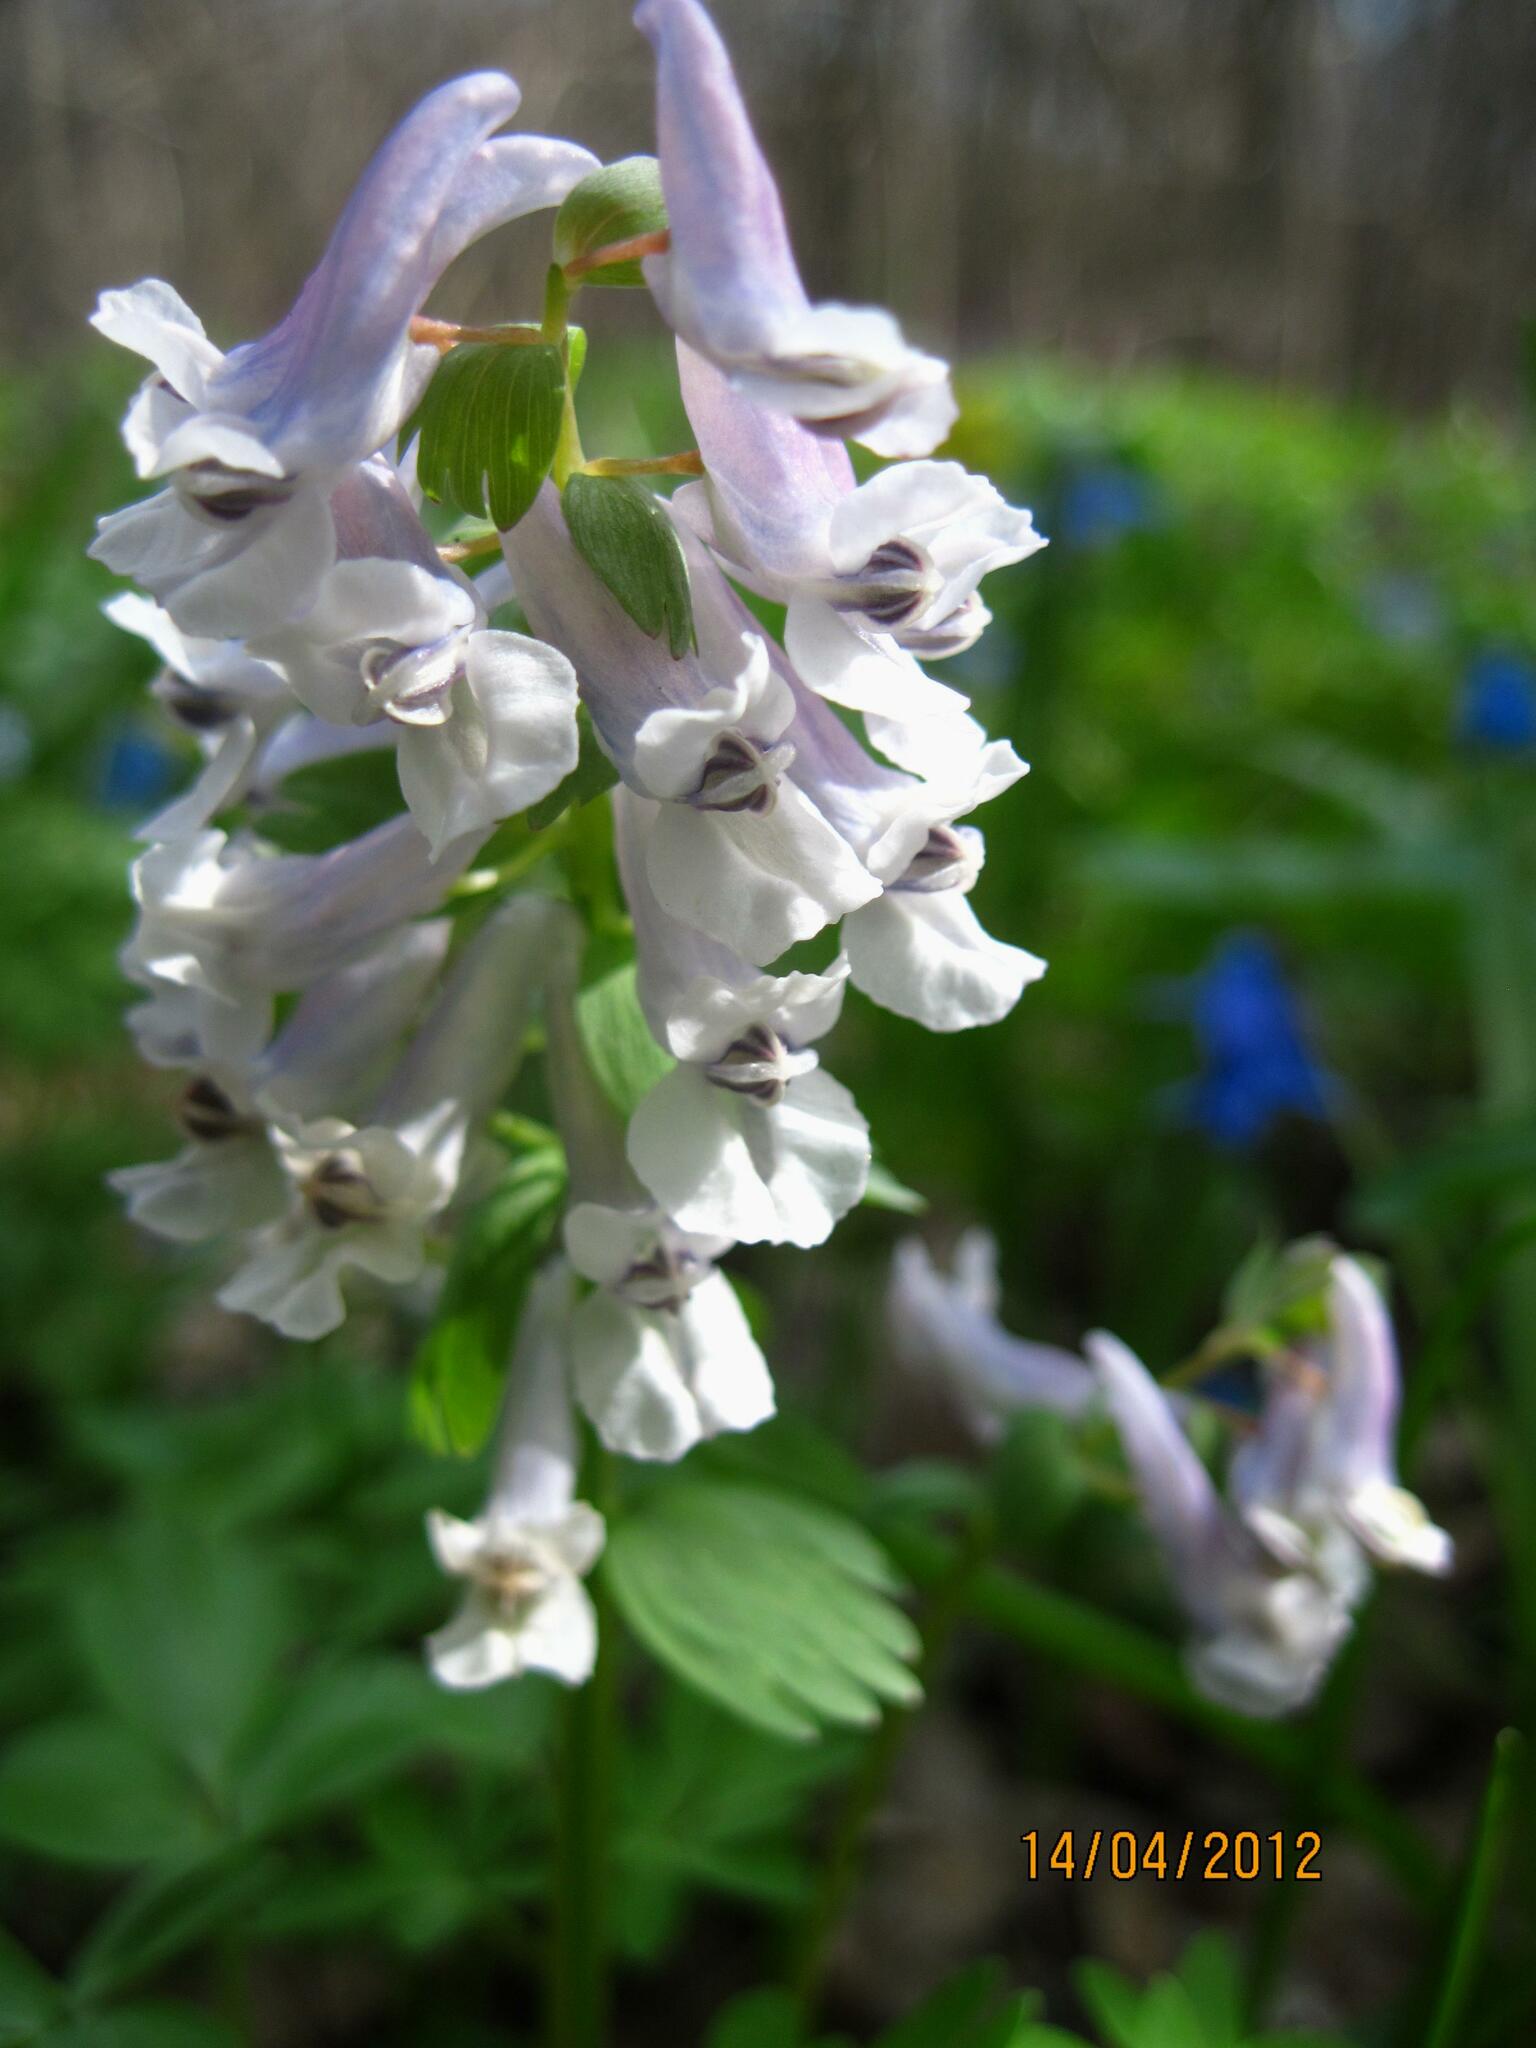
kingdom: Plantae
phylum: Tracheophyta
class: Magnoliopsida
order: Ranunculales
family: Papaveraceae
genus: Corydalis
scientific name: Corydalis solida
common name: Bird-in-a-bush
